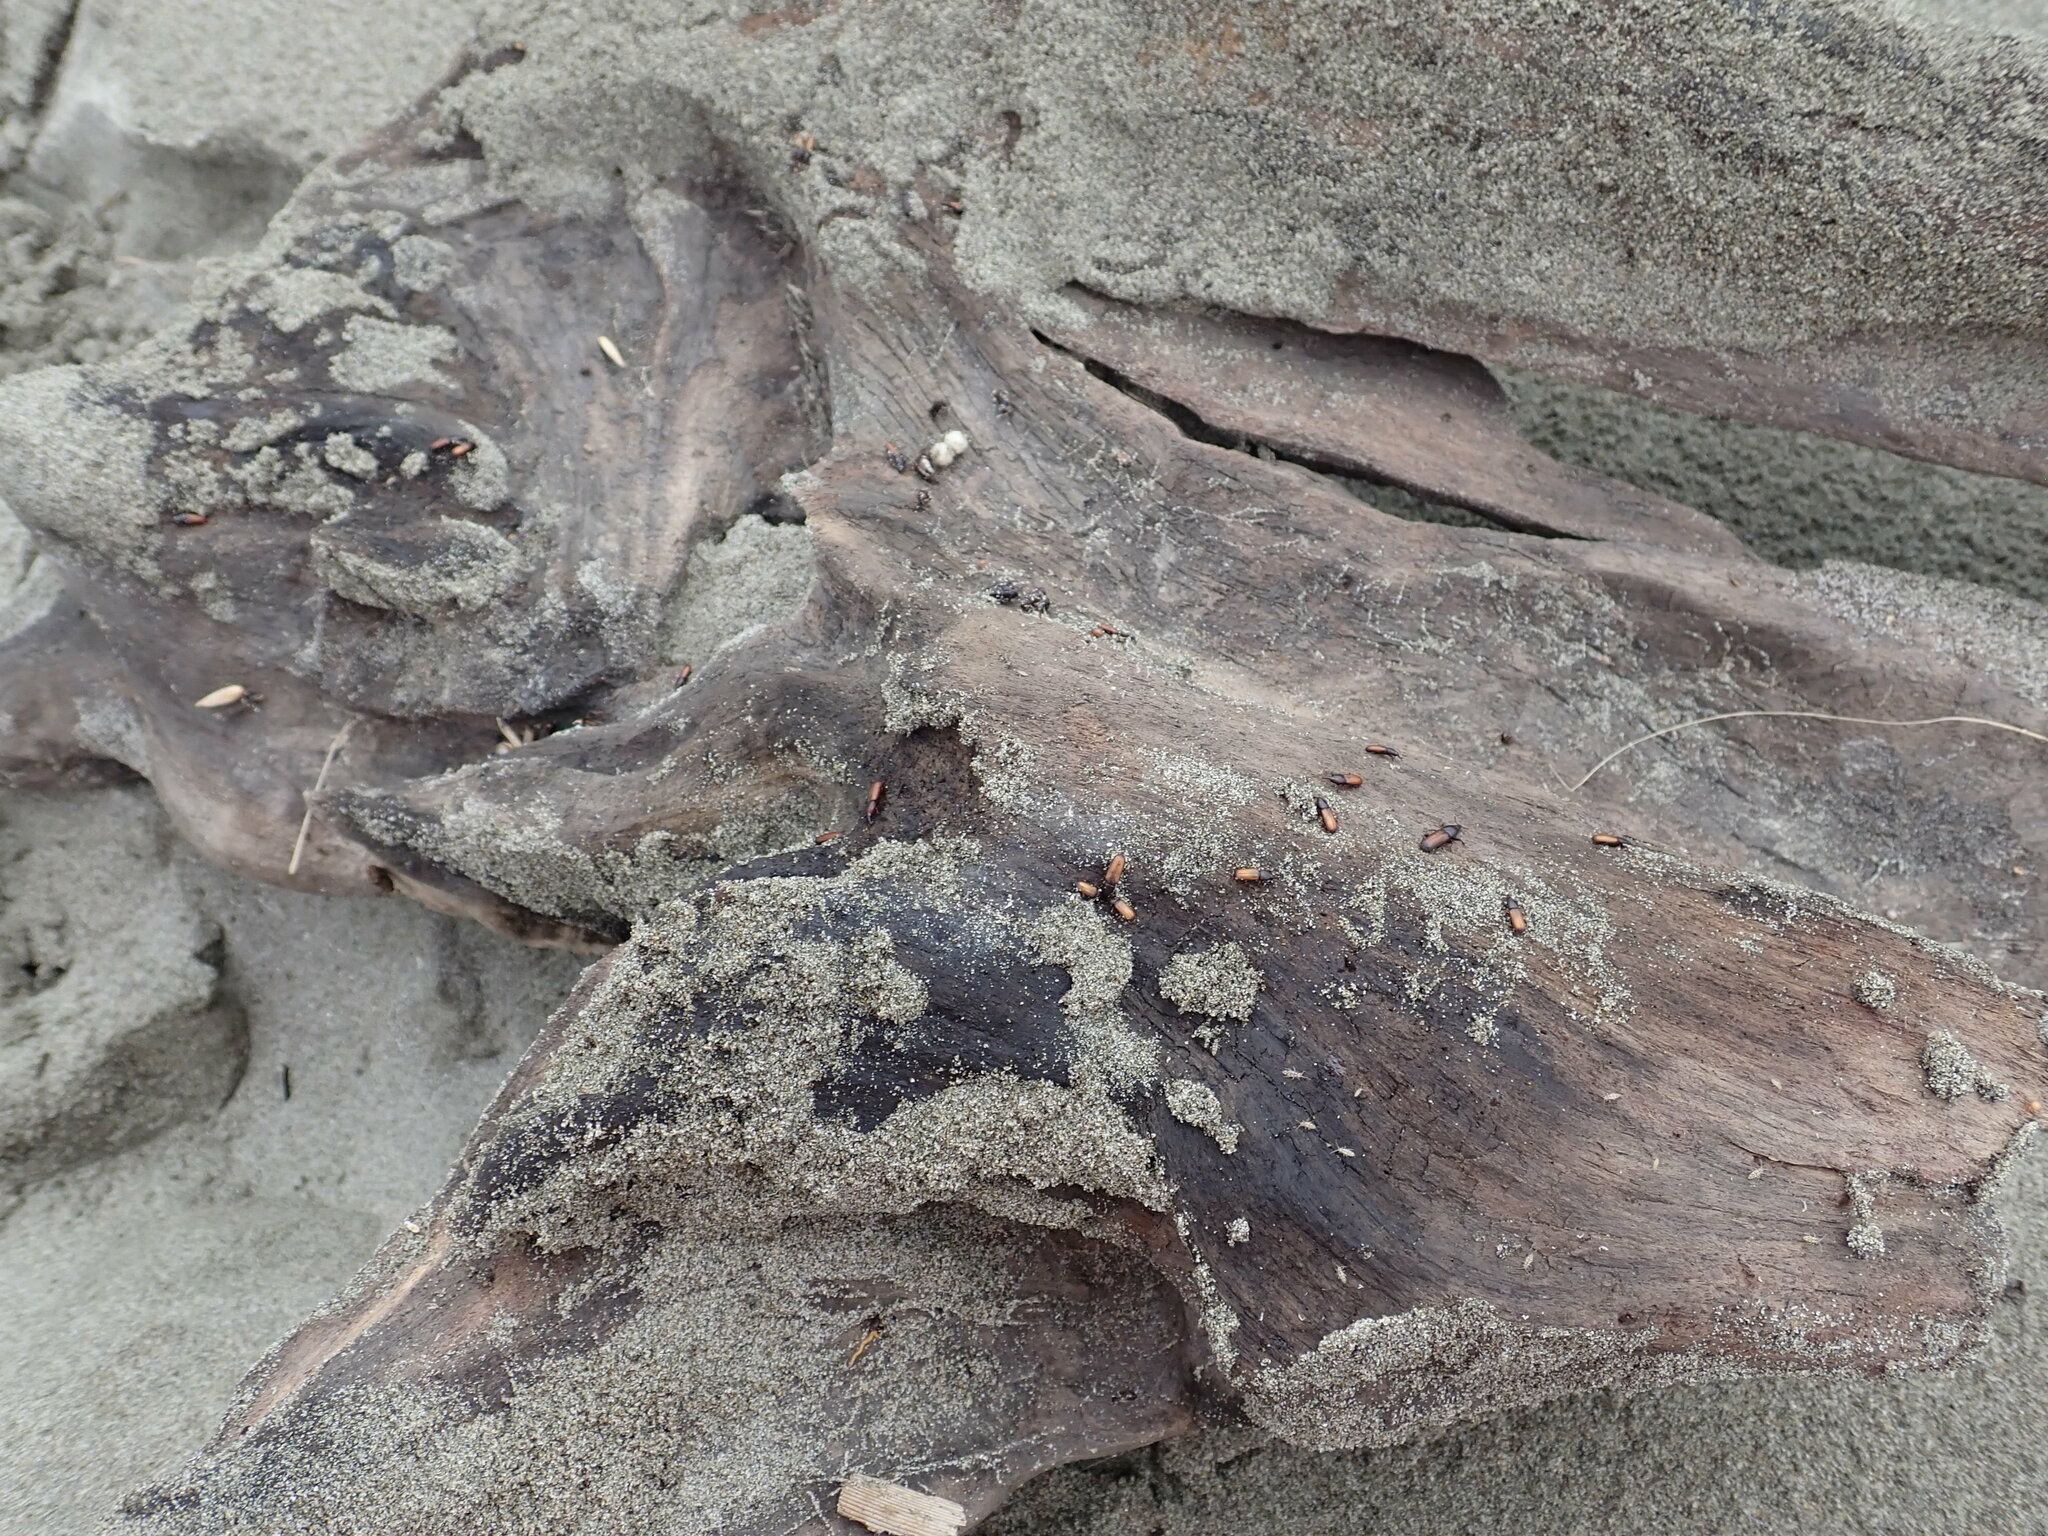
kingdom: Animalia
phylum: Arthropoda
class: Insecta
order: Coleoptera
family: Curculionidae
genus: Mesites
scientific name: Mesites pallidipennis
